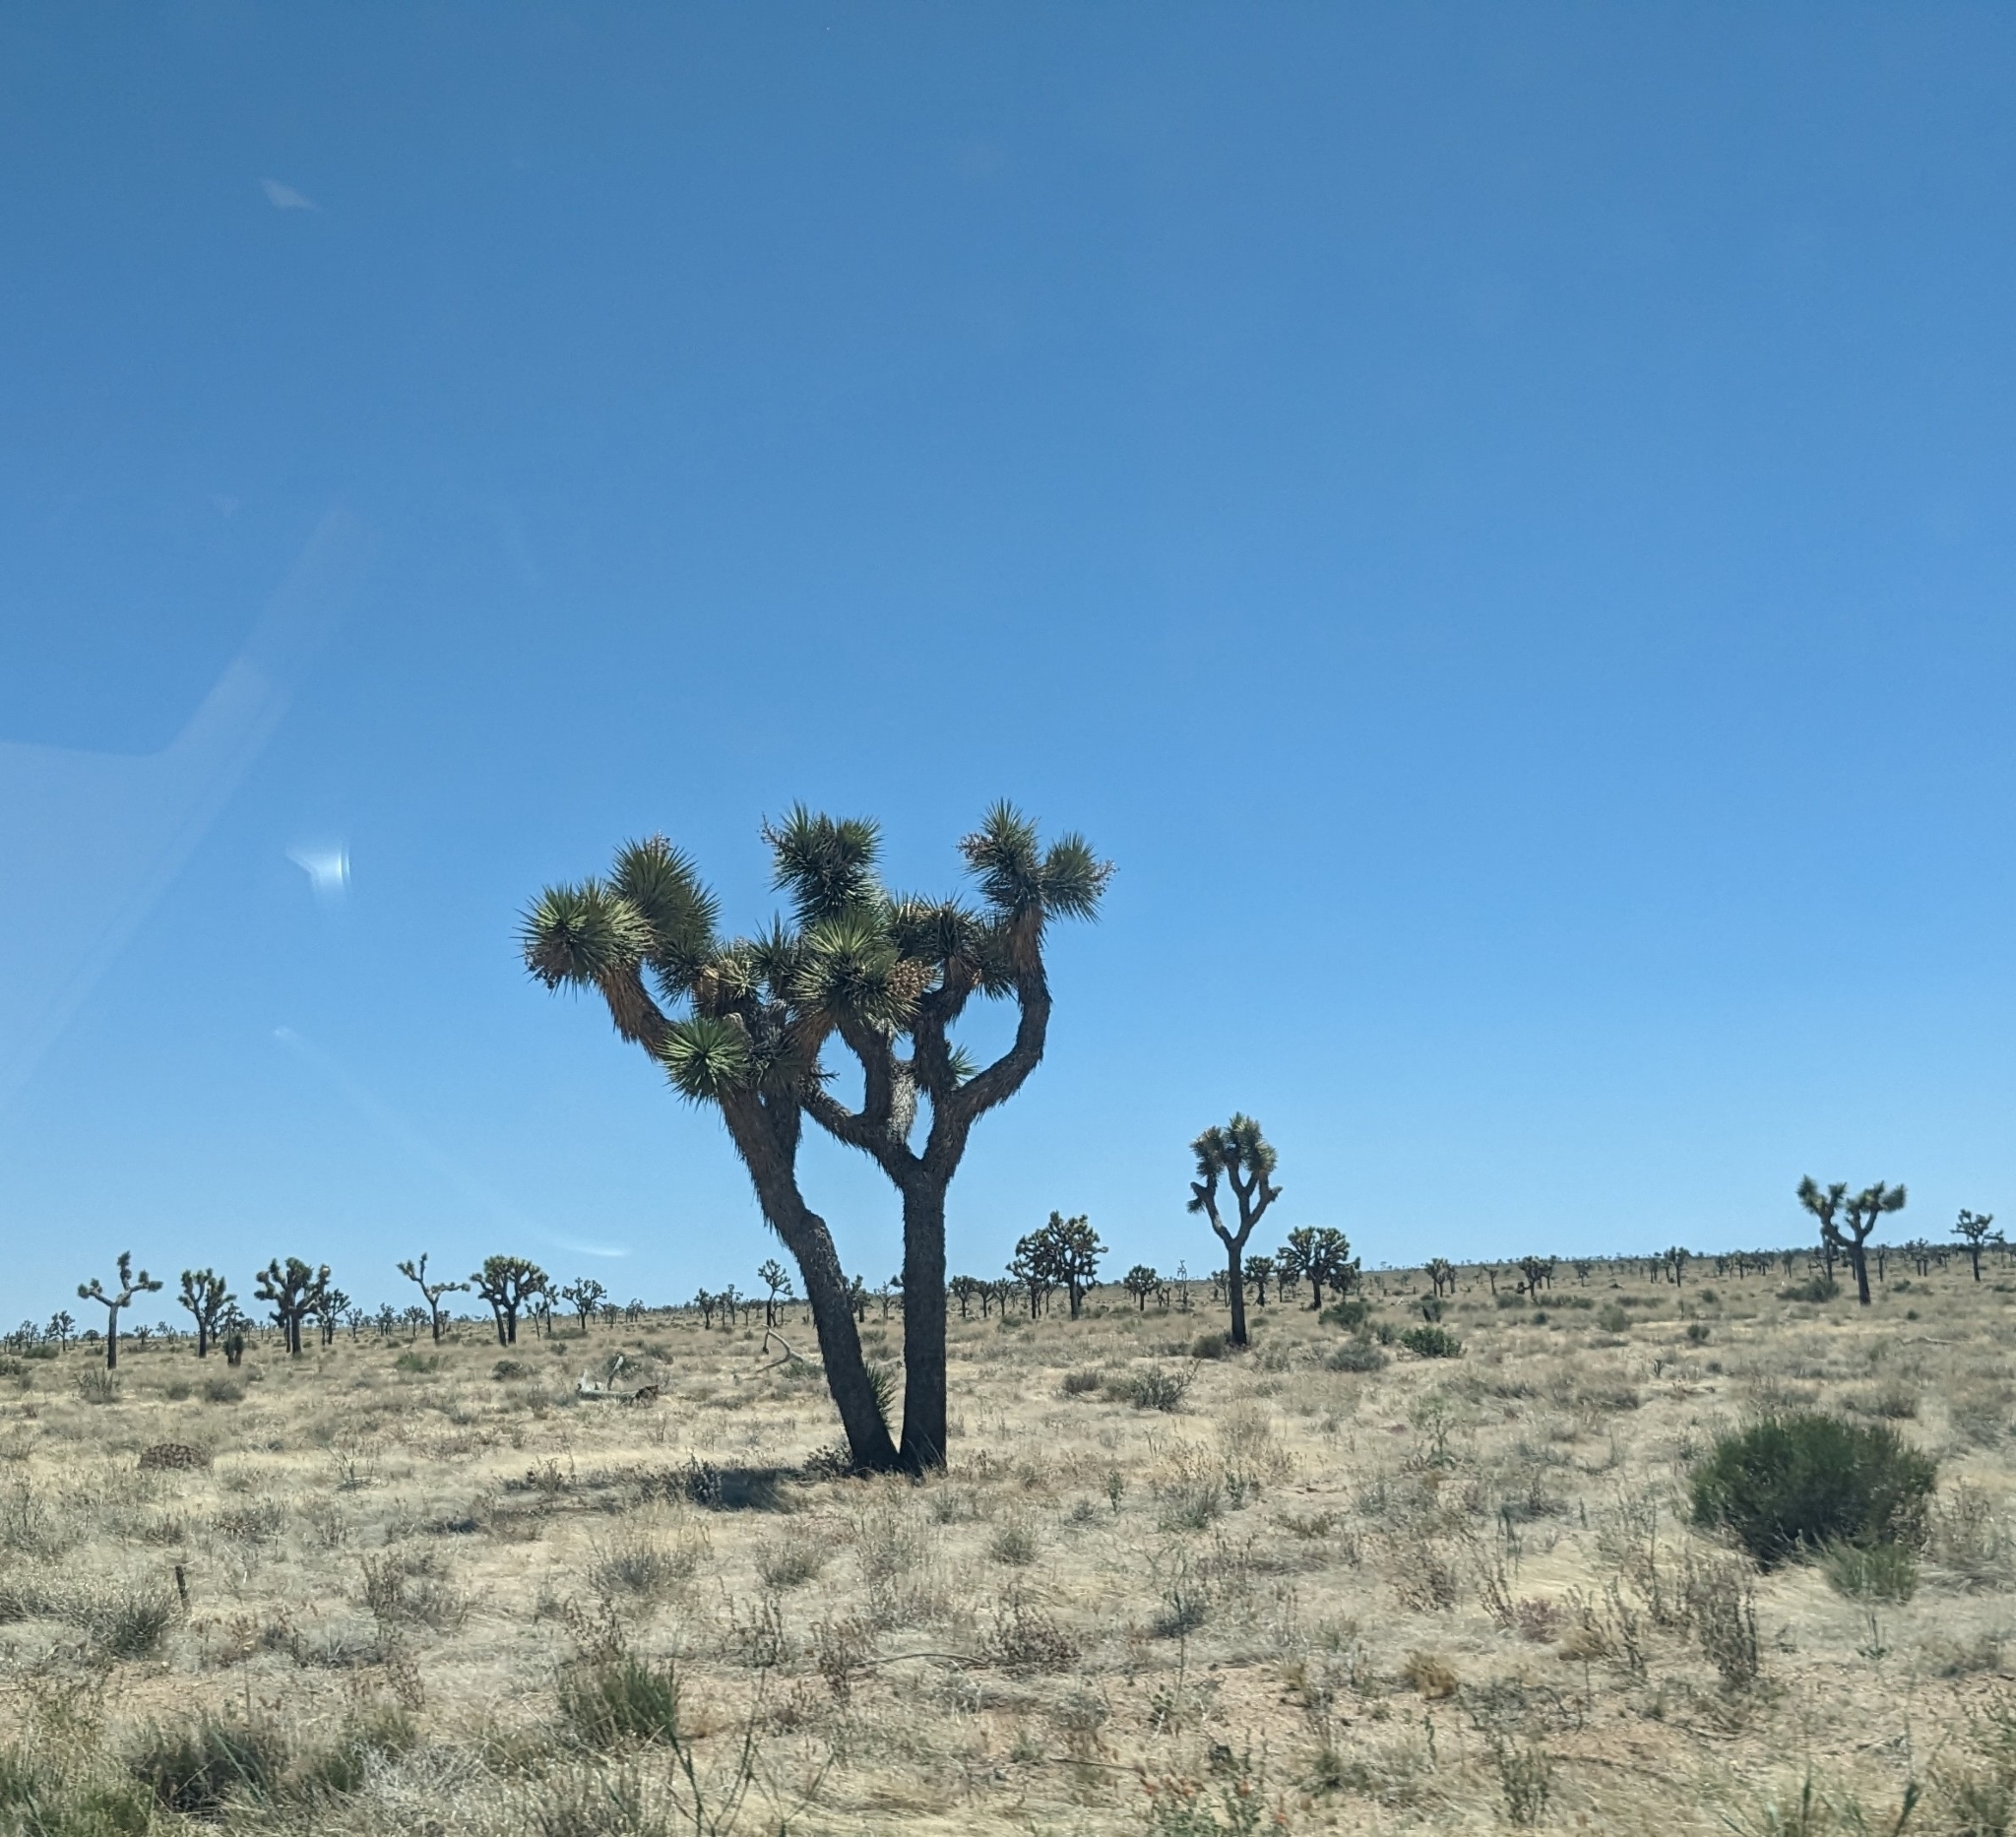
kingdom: Plantae
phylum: Tracheophyta
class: Liliopsida
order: Asparagales
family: Asparagaceae
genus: Yucca
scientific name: Yucca brevifolia
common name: Joshua tree
